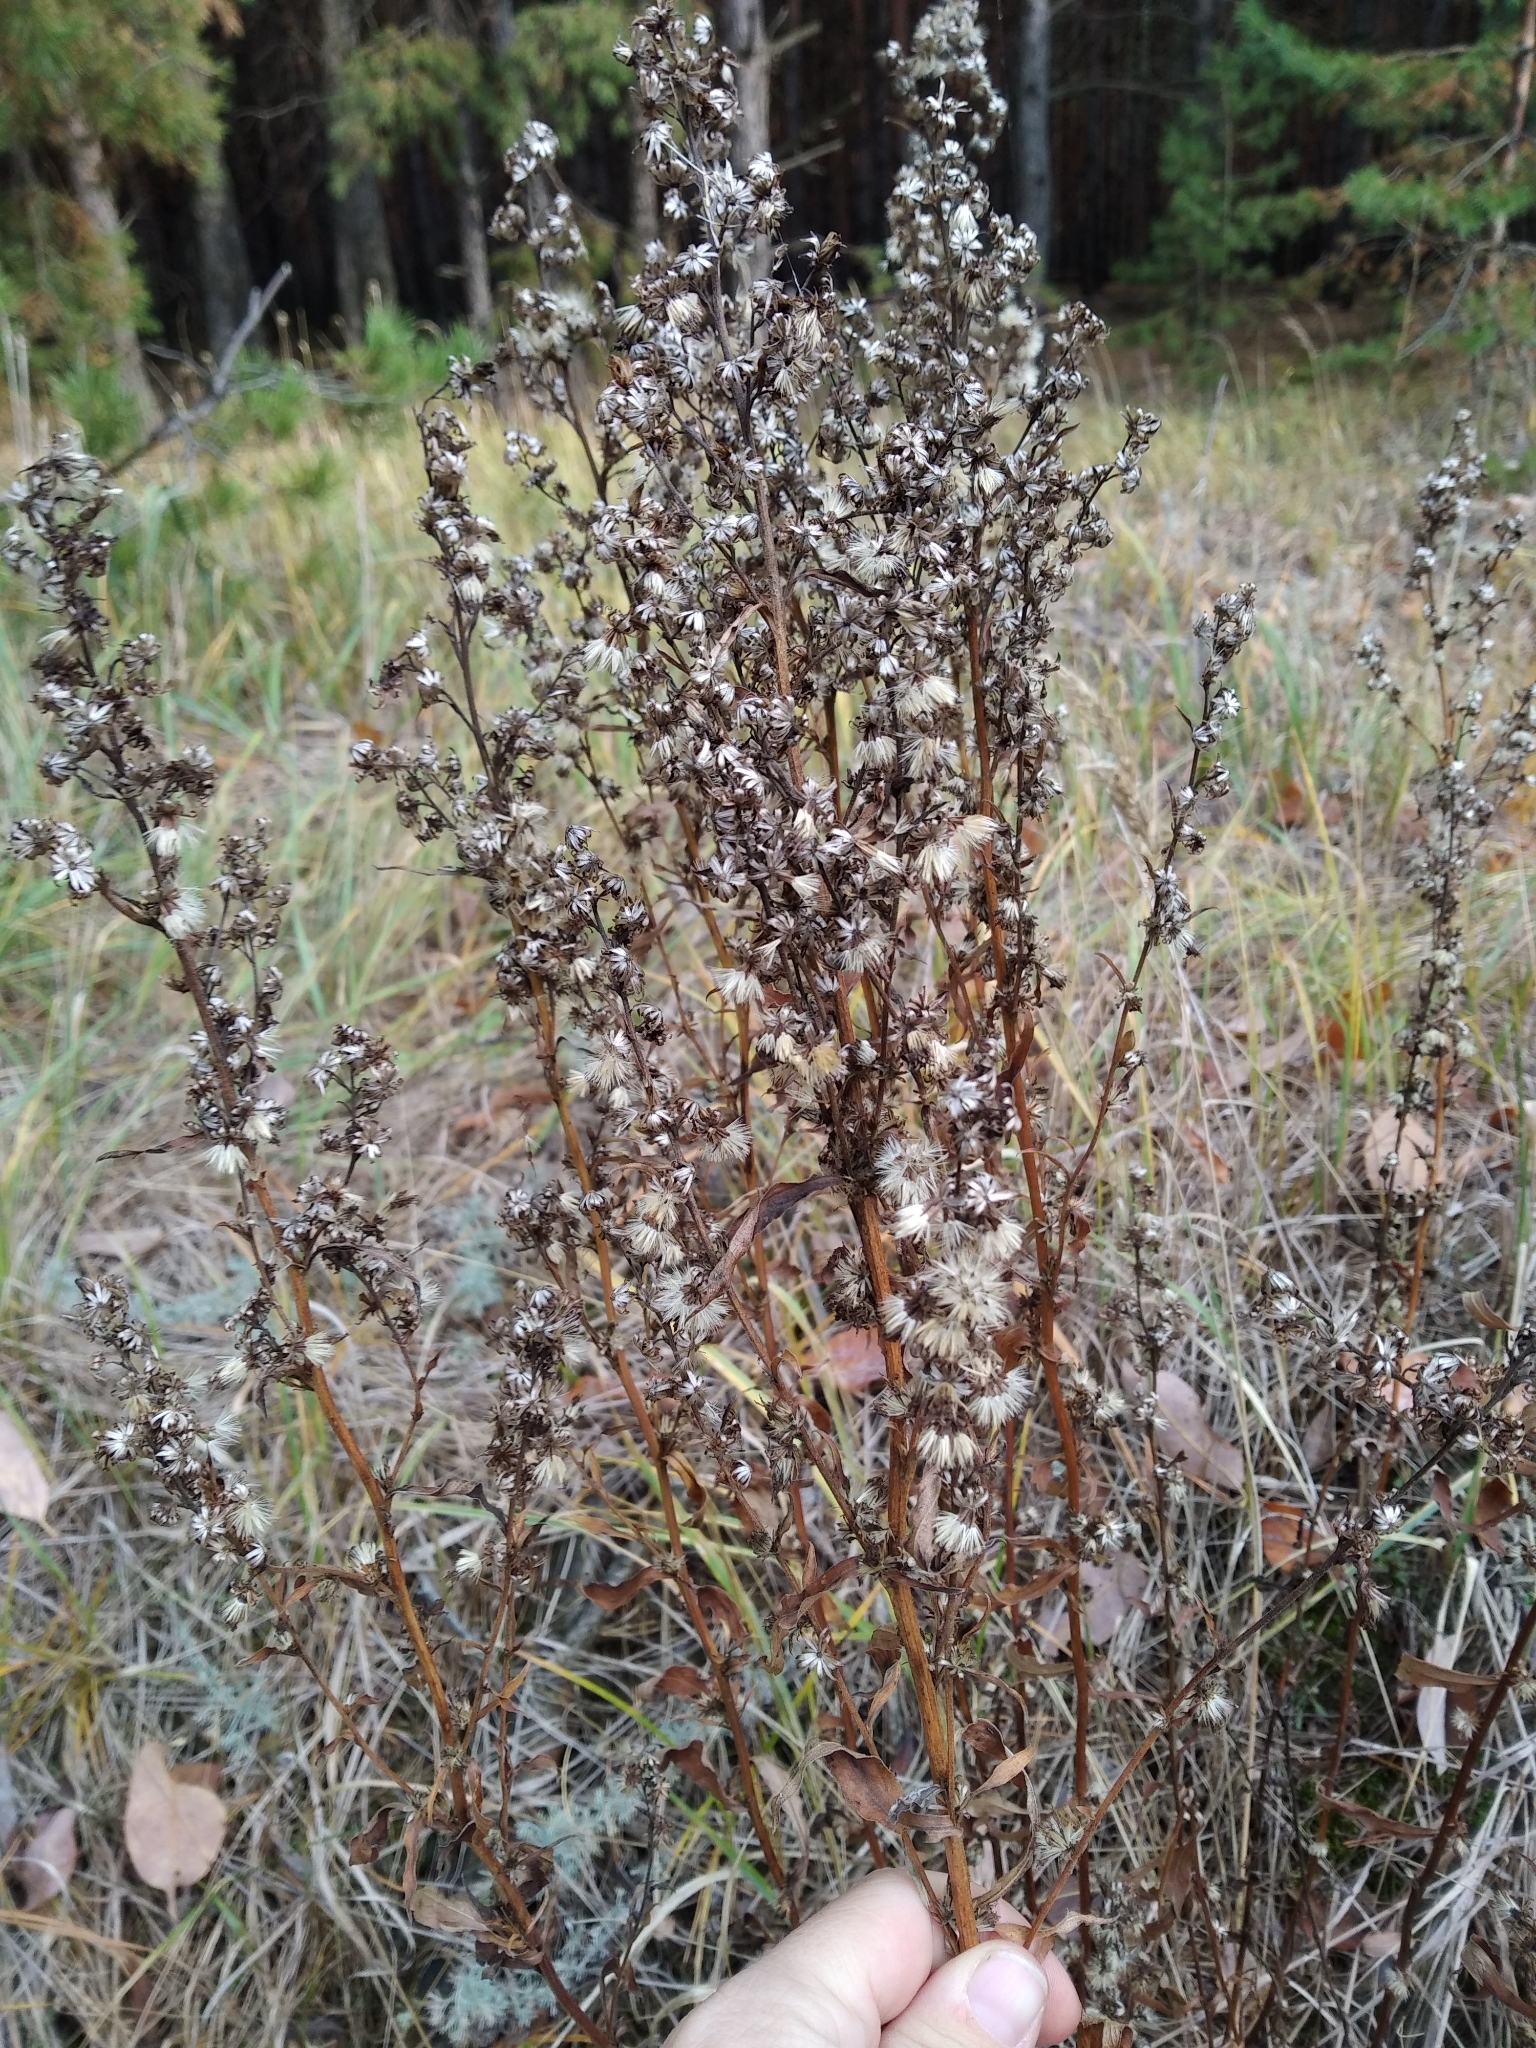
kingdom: Plantae
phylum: Tracheophyta
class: Magnoliopsida
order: Asterales
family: Asteraceae
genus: Solidago
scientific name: Solidago virgaurea
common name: Goldenrod
